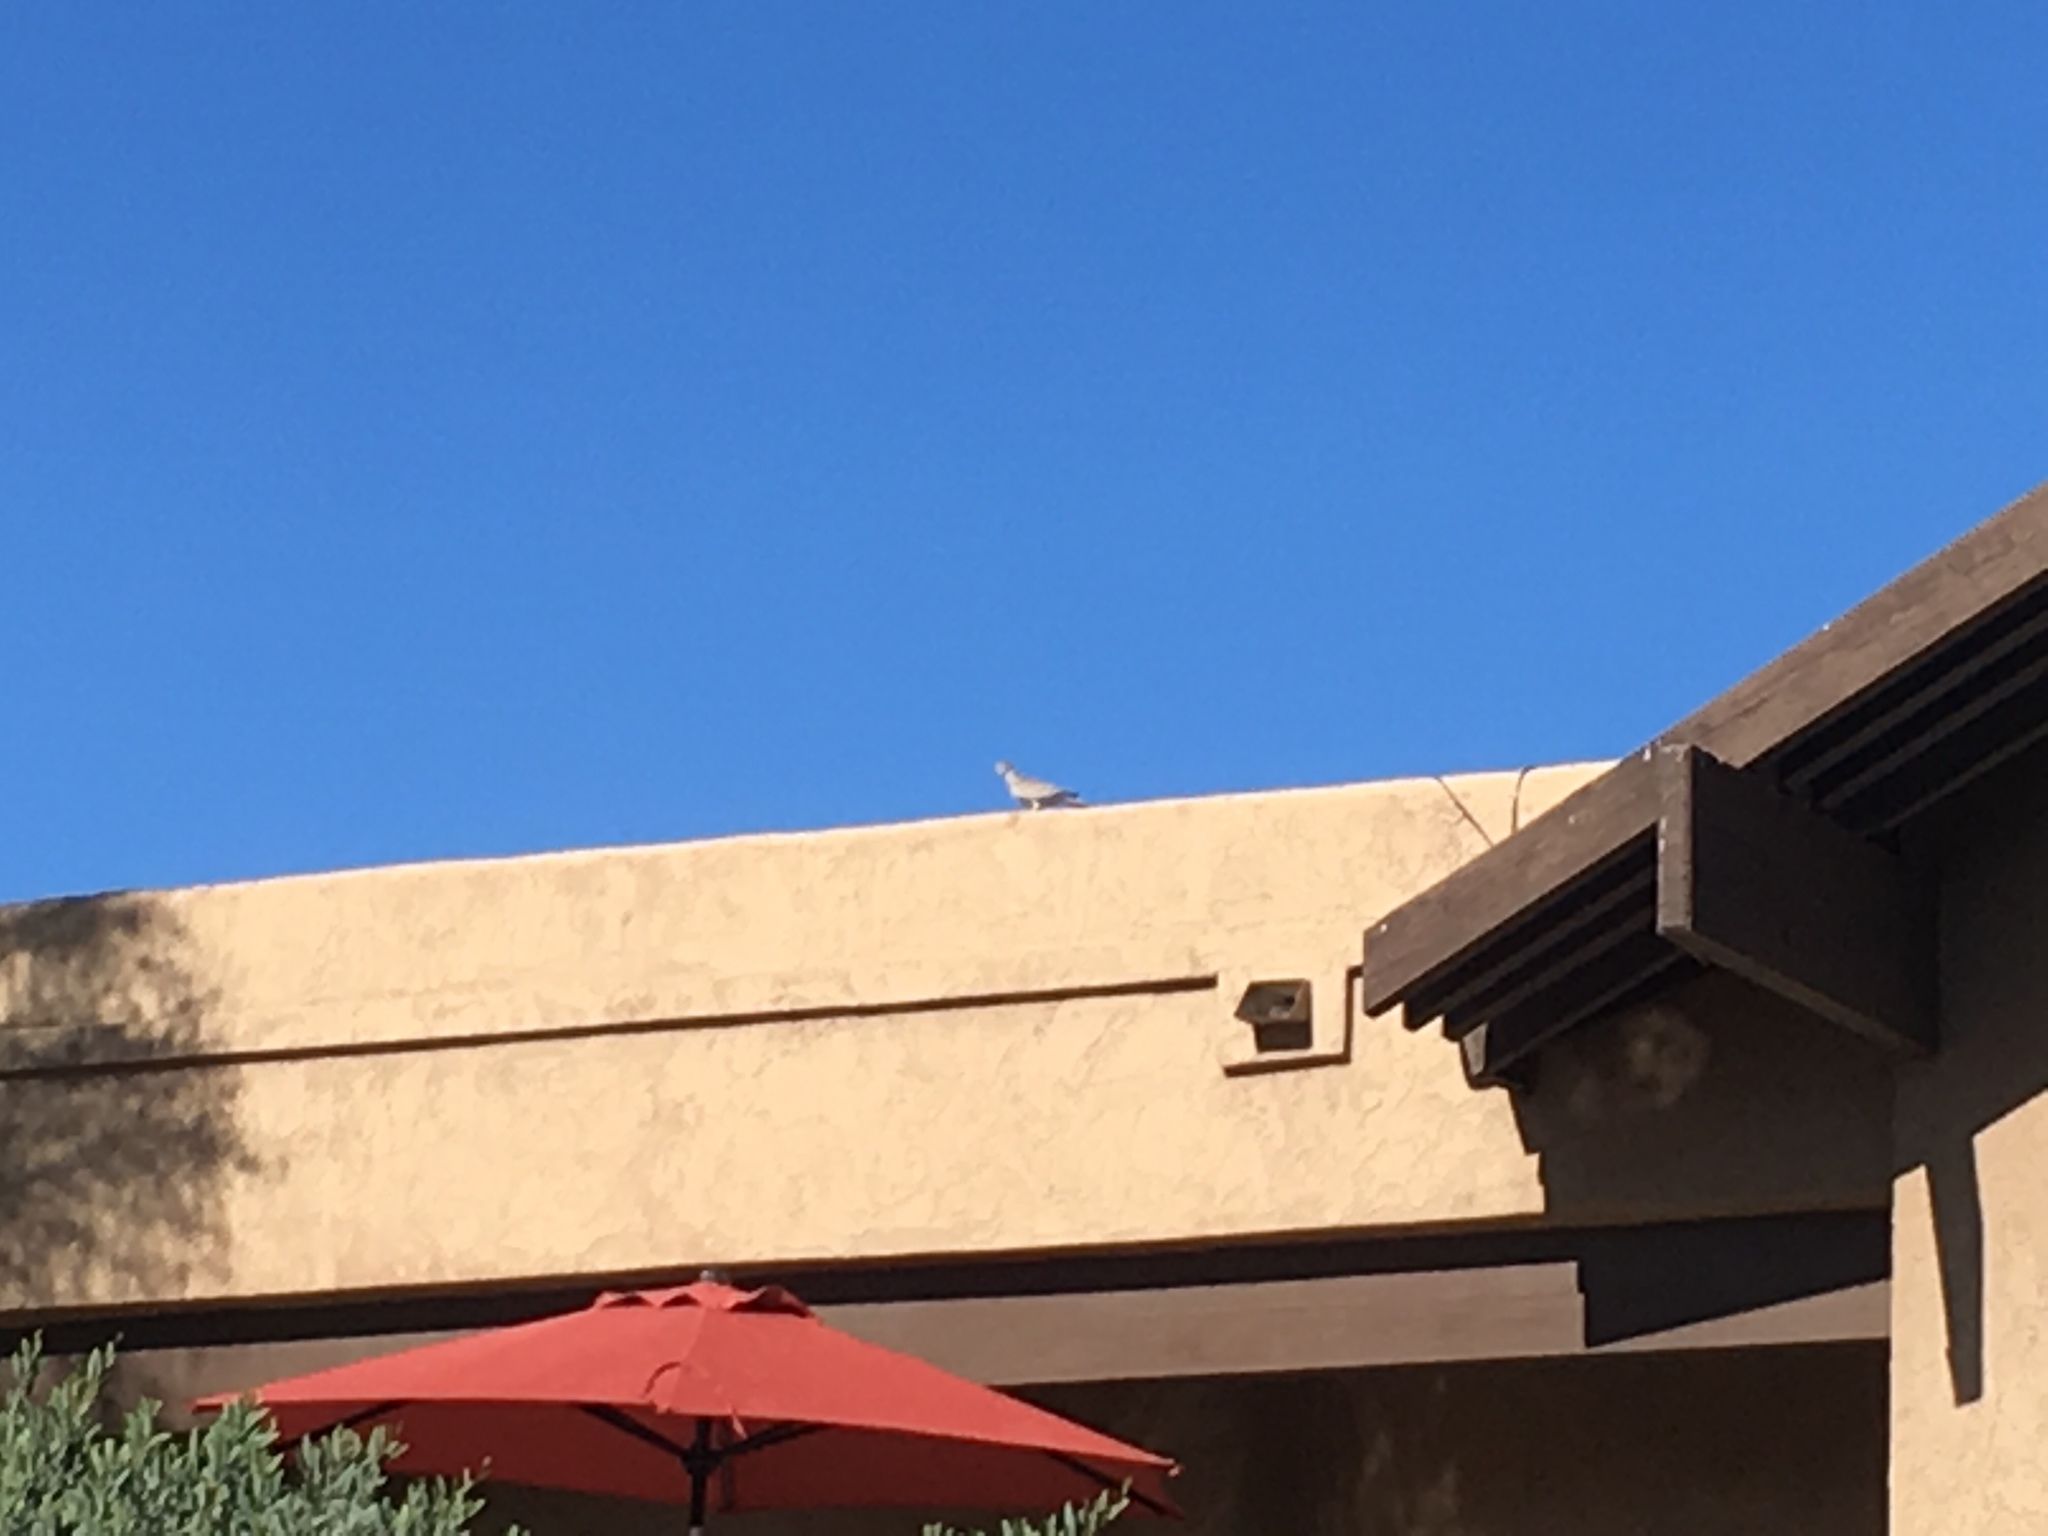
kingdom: Animalia
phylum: Chordata
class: Aves
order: Columbiformes
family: Columbidae
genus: Streptopelia
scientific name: Streptopelia decaocto
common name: Eurasian collared dove
